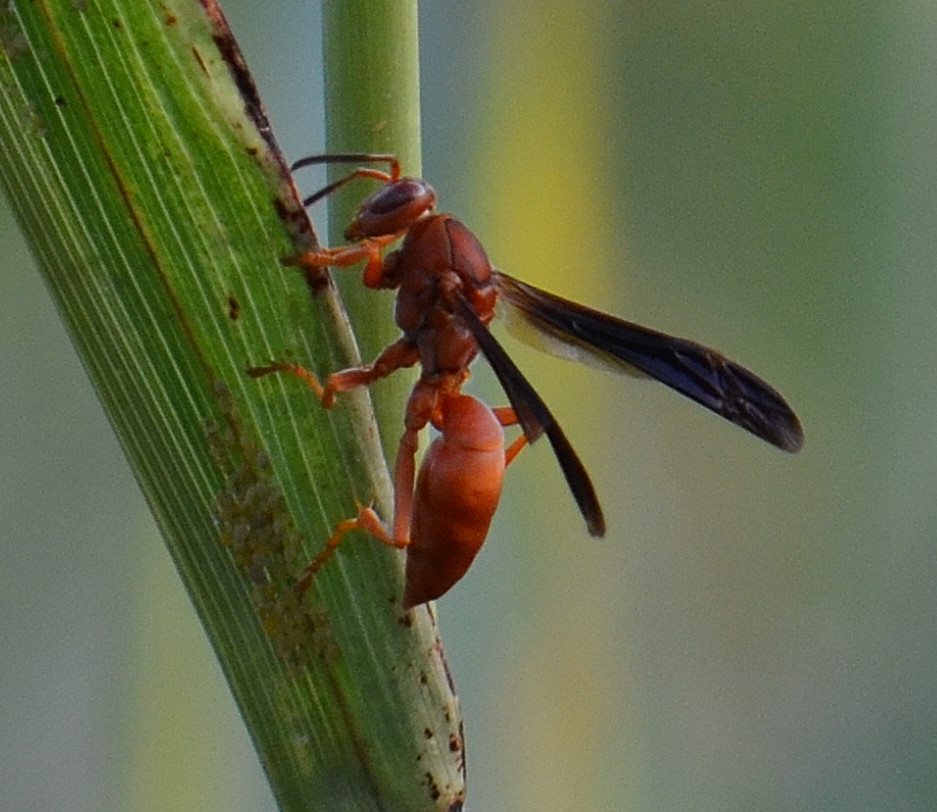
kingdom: Animalia
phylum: Arthropoda
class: Insecta
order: Hymenoptera
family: Vespidae
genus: Fuscopolistes
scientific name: Fuscopolistes
